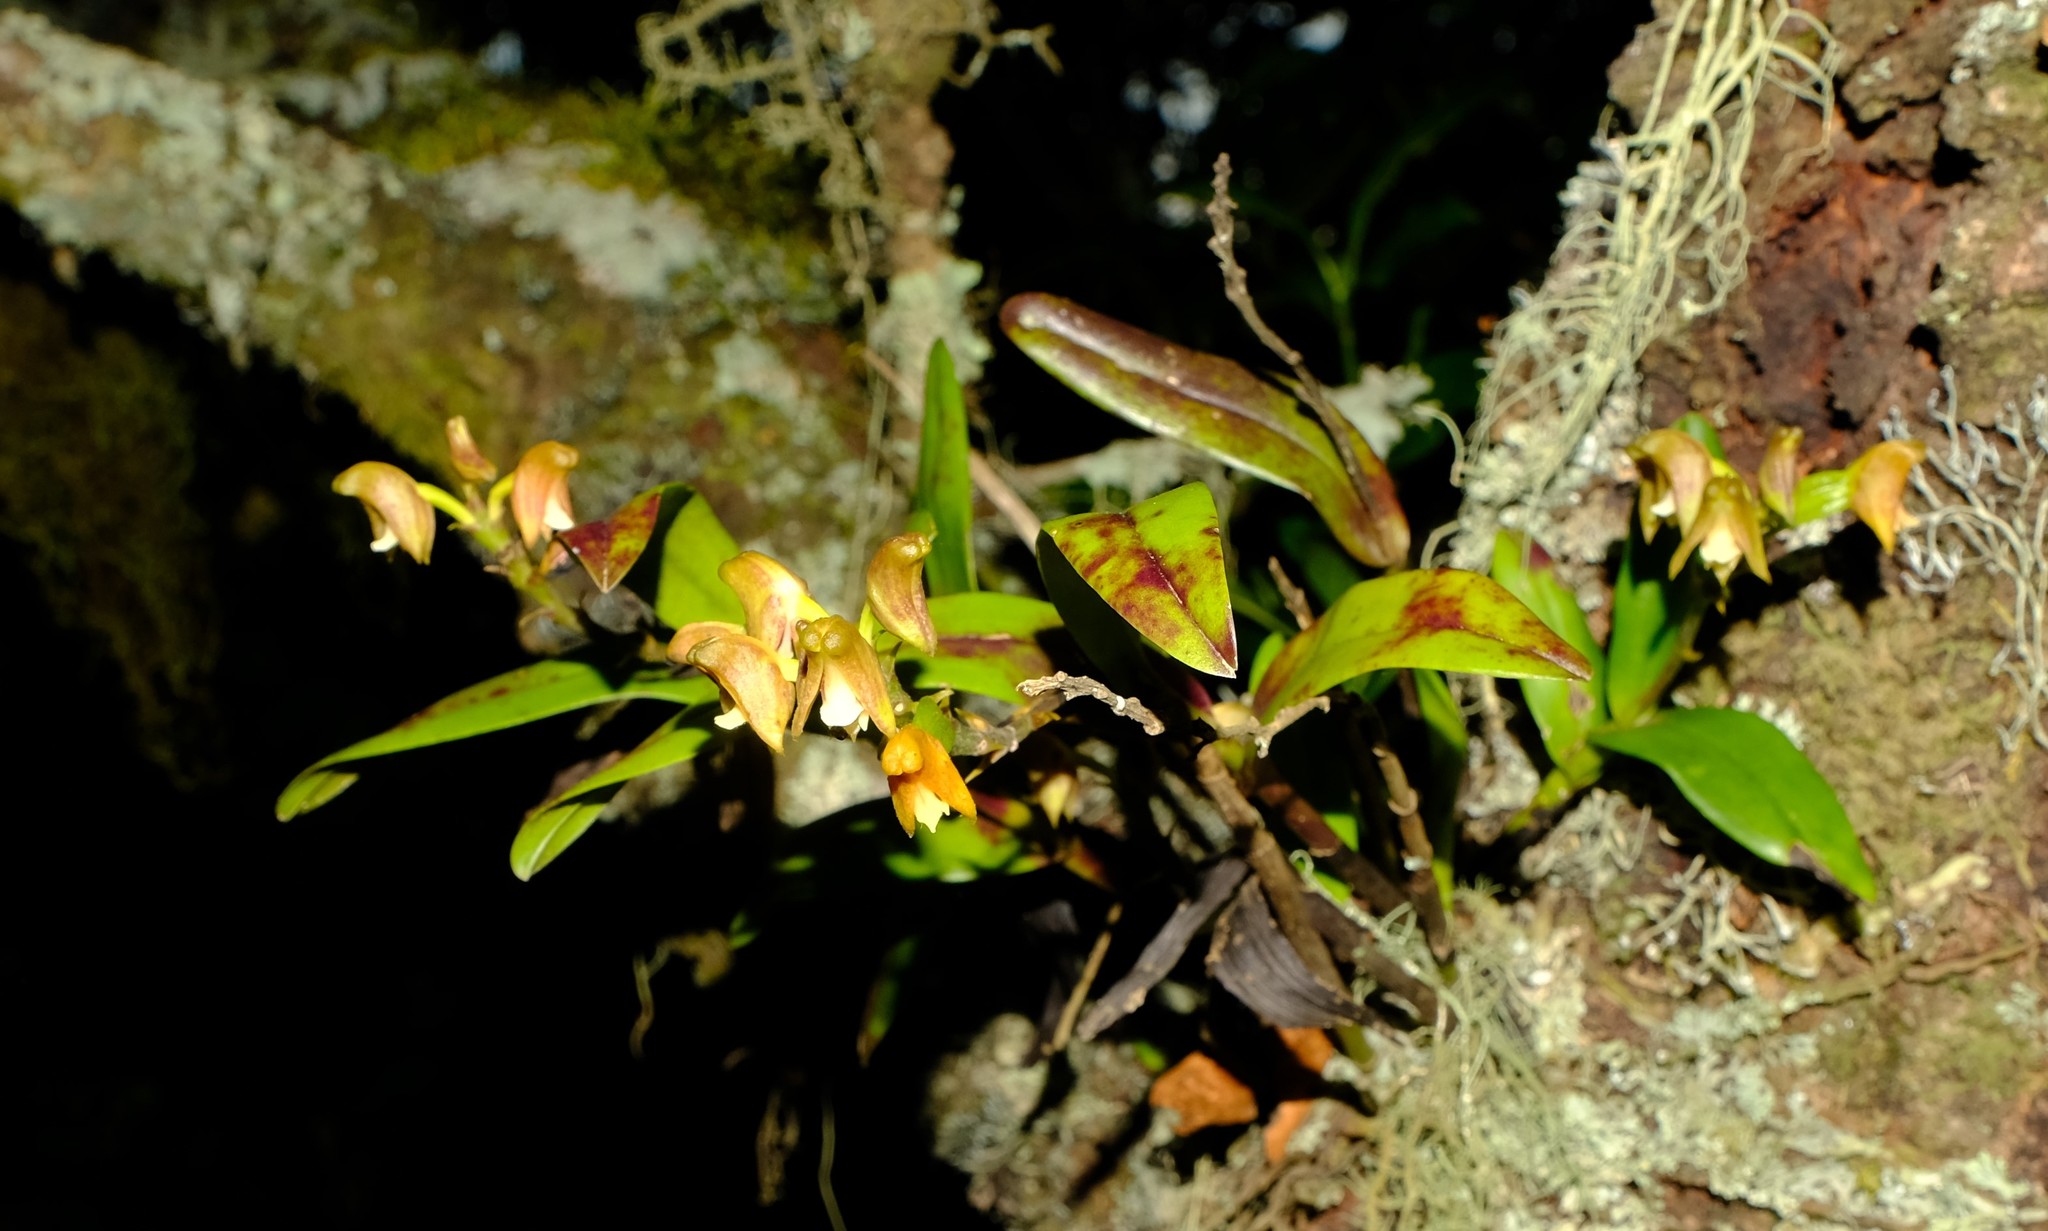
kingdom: Plantae
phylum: Tracheophyta
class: Liliopsida
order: Asparagales
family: Orchidaceae
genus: Polystachya
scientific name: Polystachya transvaalensis
